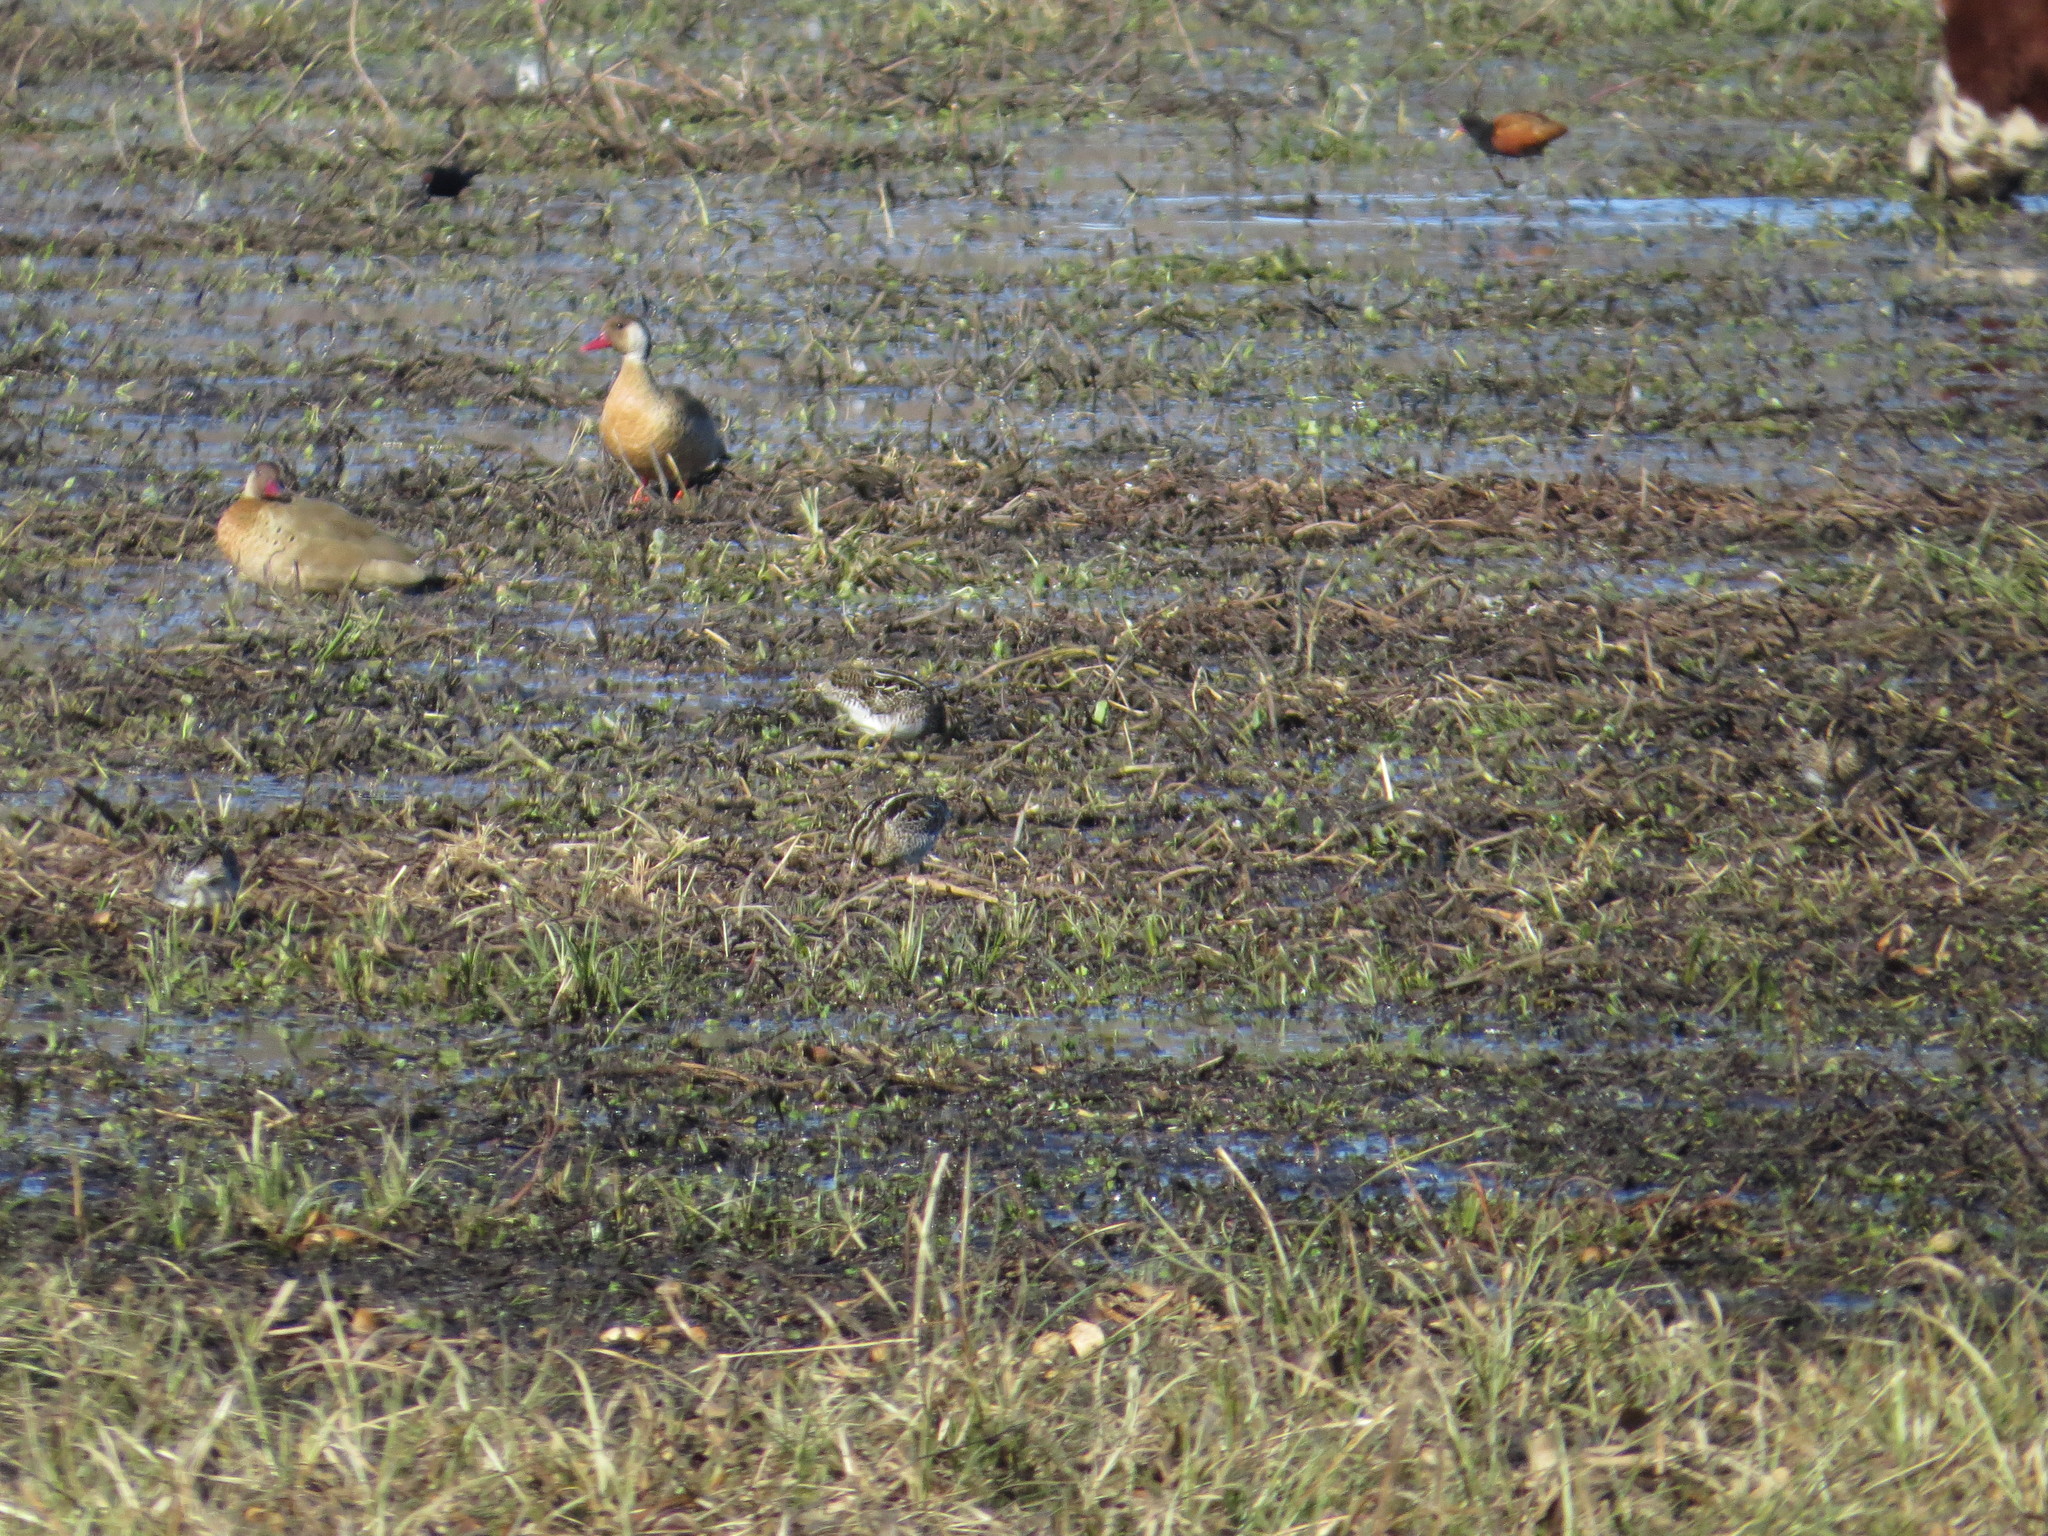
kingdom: Animalia
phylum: Chordata
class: Aves
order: Anseriformes
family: Anatidae
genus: Amazonetta
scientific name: Amazonetta brasiliensis
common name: Brazilian teal
